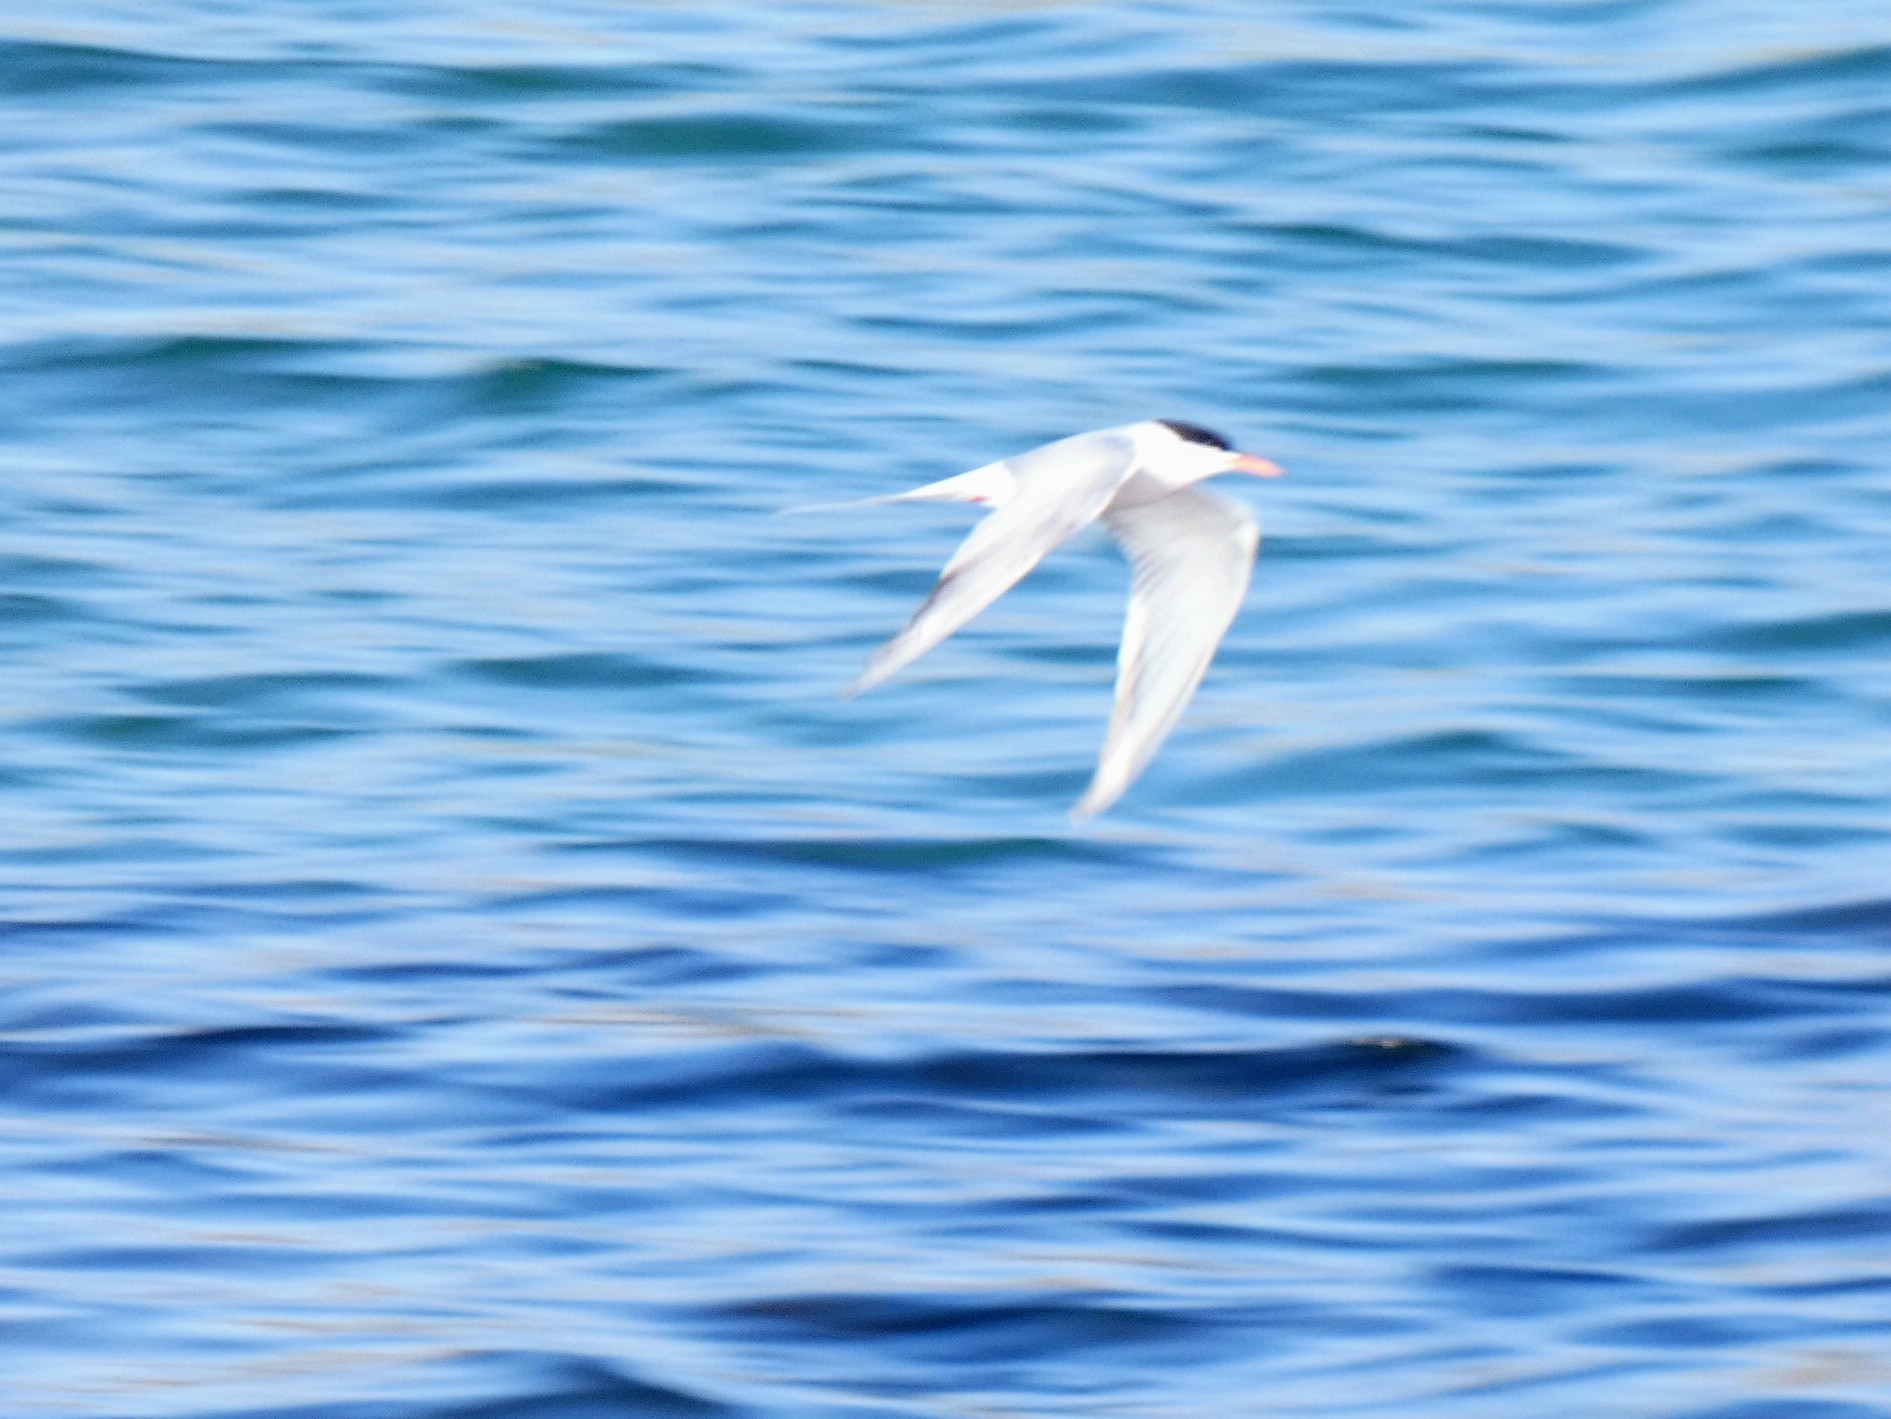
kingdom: Animalia
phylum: Chordata
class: Aves
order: Charadriiformes
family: Laridae
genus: Sterna
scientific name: Sterna hirundo
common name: Common tern
